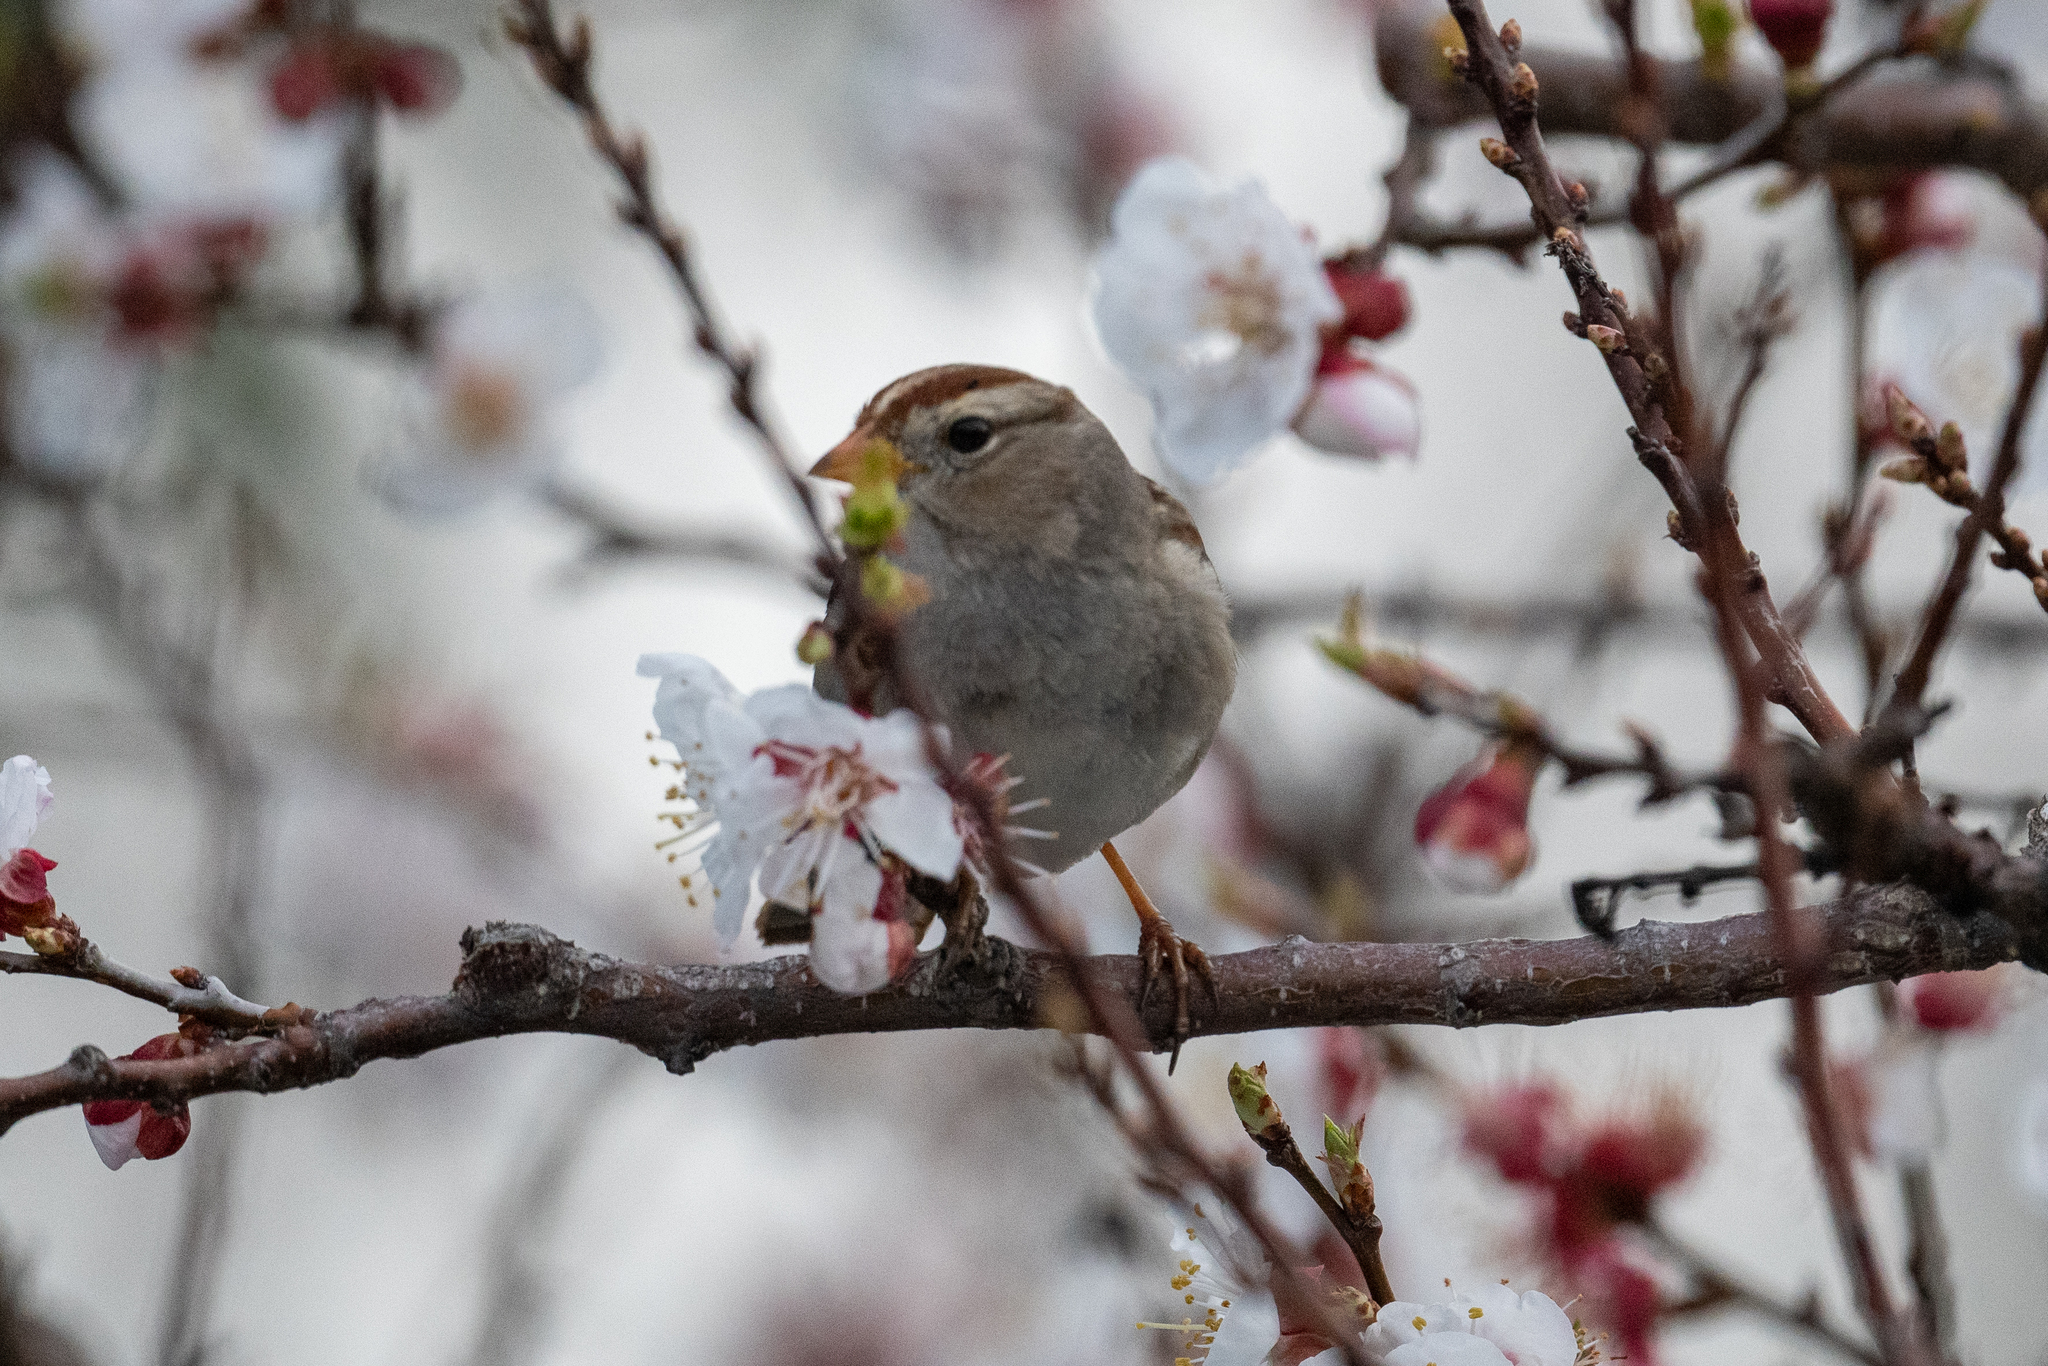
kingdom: Animalia
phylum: Chordata
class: Aves
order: Passeriformes
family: Passerellidae
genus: Zonotrichia
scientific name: Zonotrichia leucophrys
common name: White-crowned sparrow
